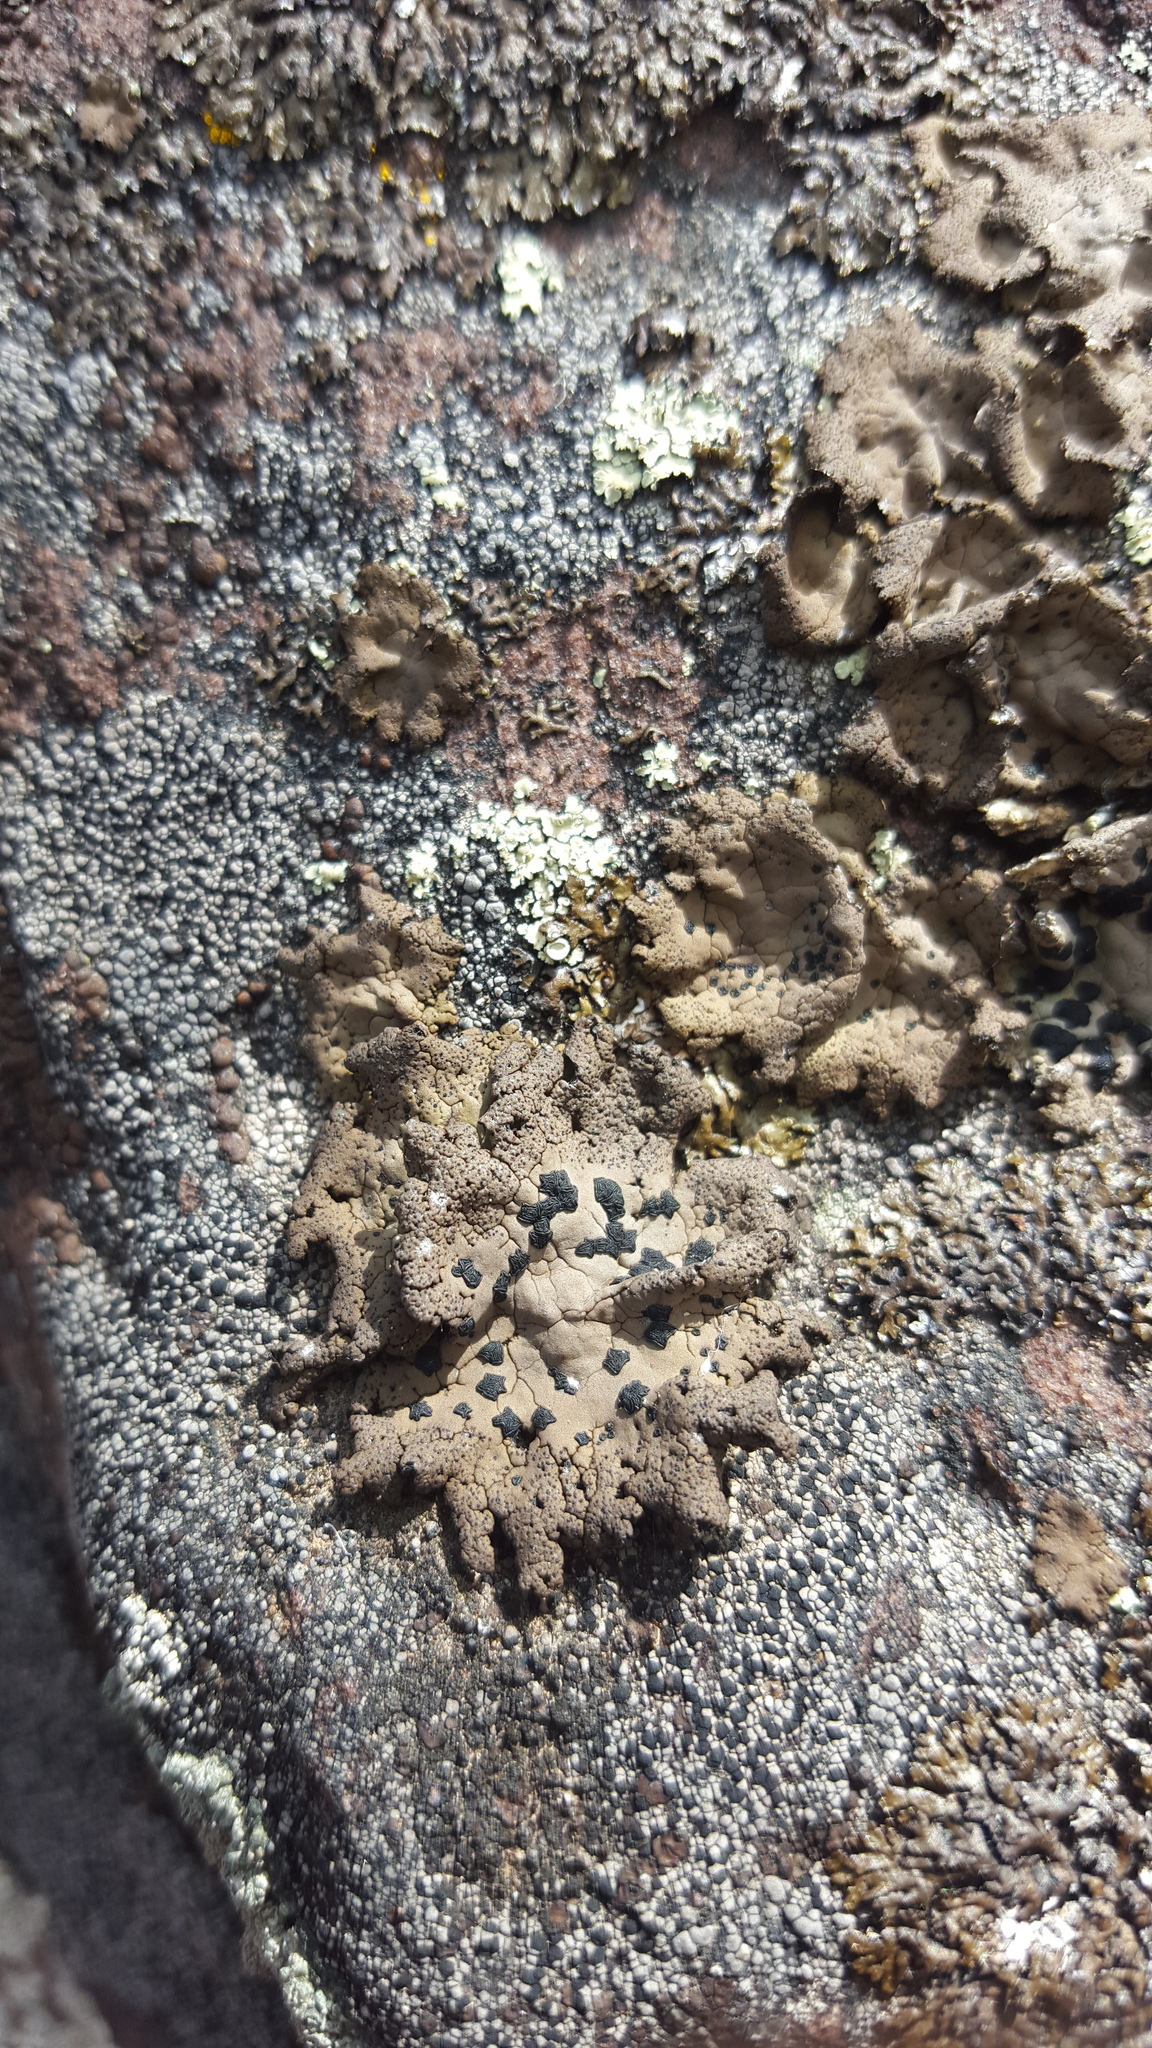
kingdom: Fungi
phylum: Ascomycota
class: Lecanoromycetes
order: Umbilicariales
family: Umbilicariaceae
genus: Umbilicaria
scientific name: Umbilicaria phaea
